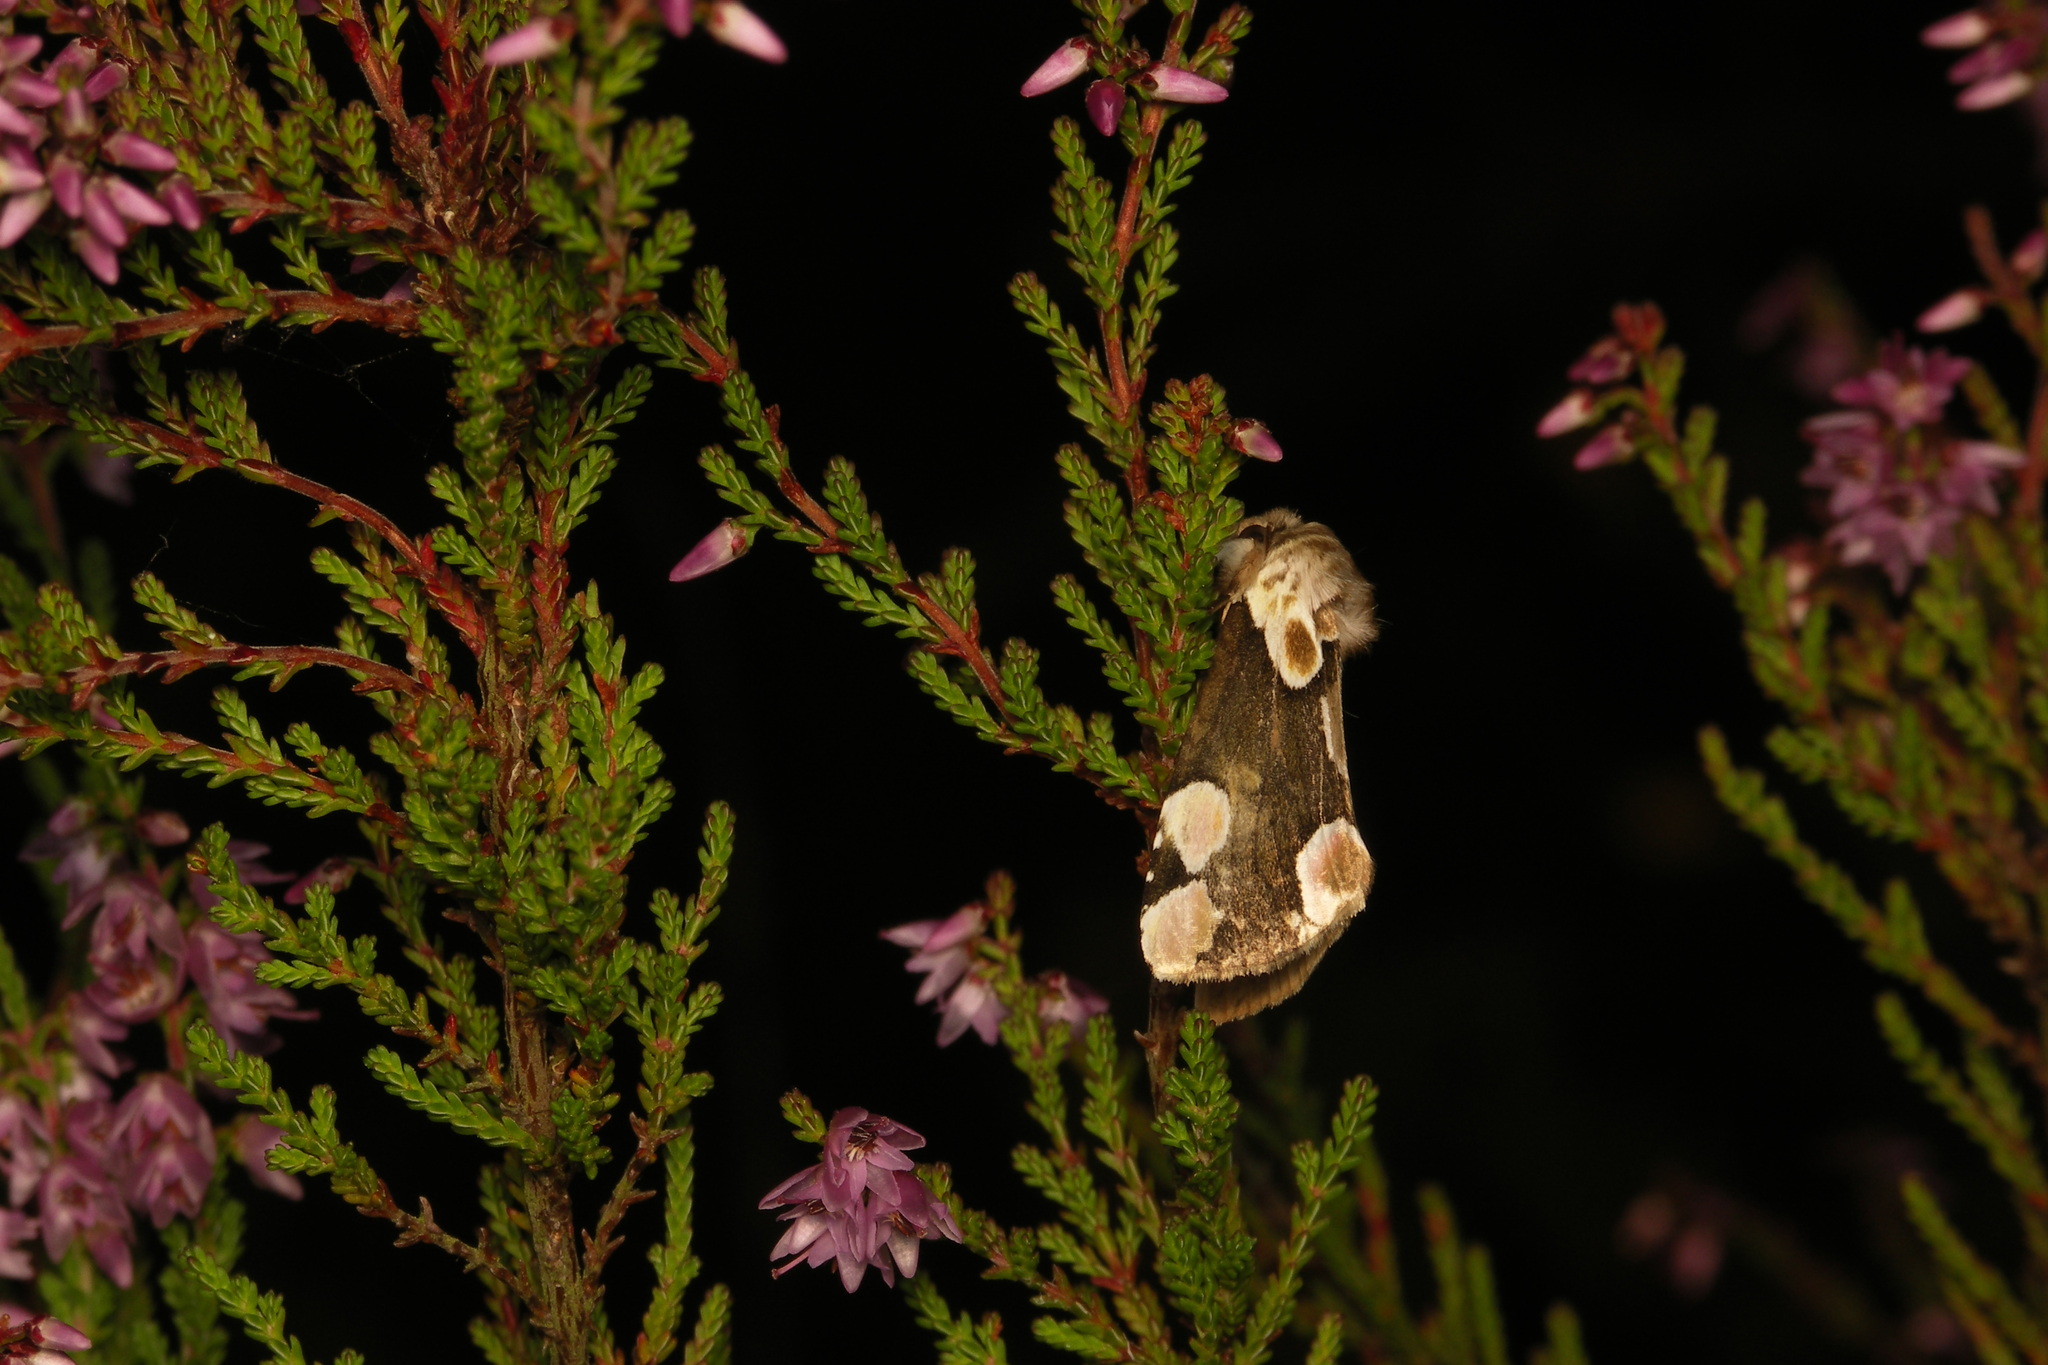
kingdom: Animalia
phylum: Arthropoda
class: Insecta
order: Lepidoptera
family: Drepanidae
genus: Thyatira
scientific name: Thyatira batis
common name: Peach blossom
